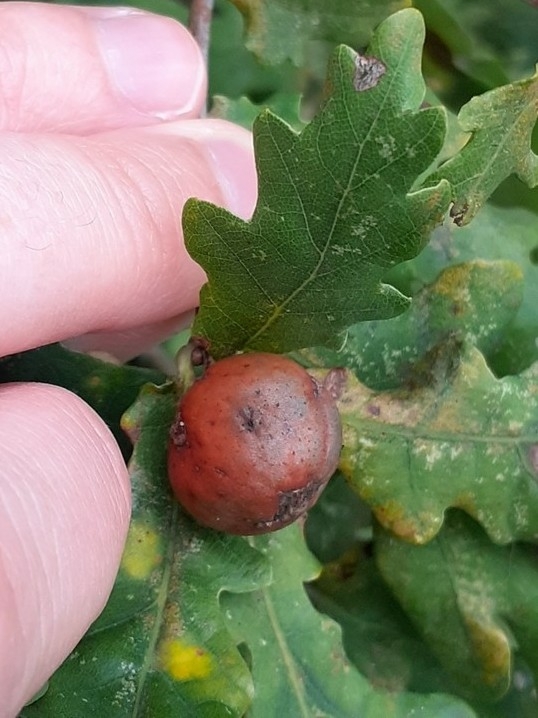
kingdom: Animalia
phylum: Arthropoda
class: Insecta
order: Hymenoptera
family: Cynipidae
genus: Andricus
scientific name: Andricus kollari
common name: Marble gall
